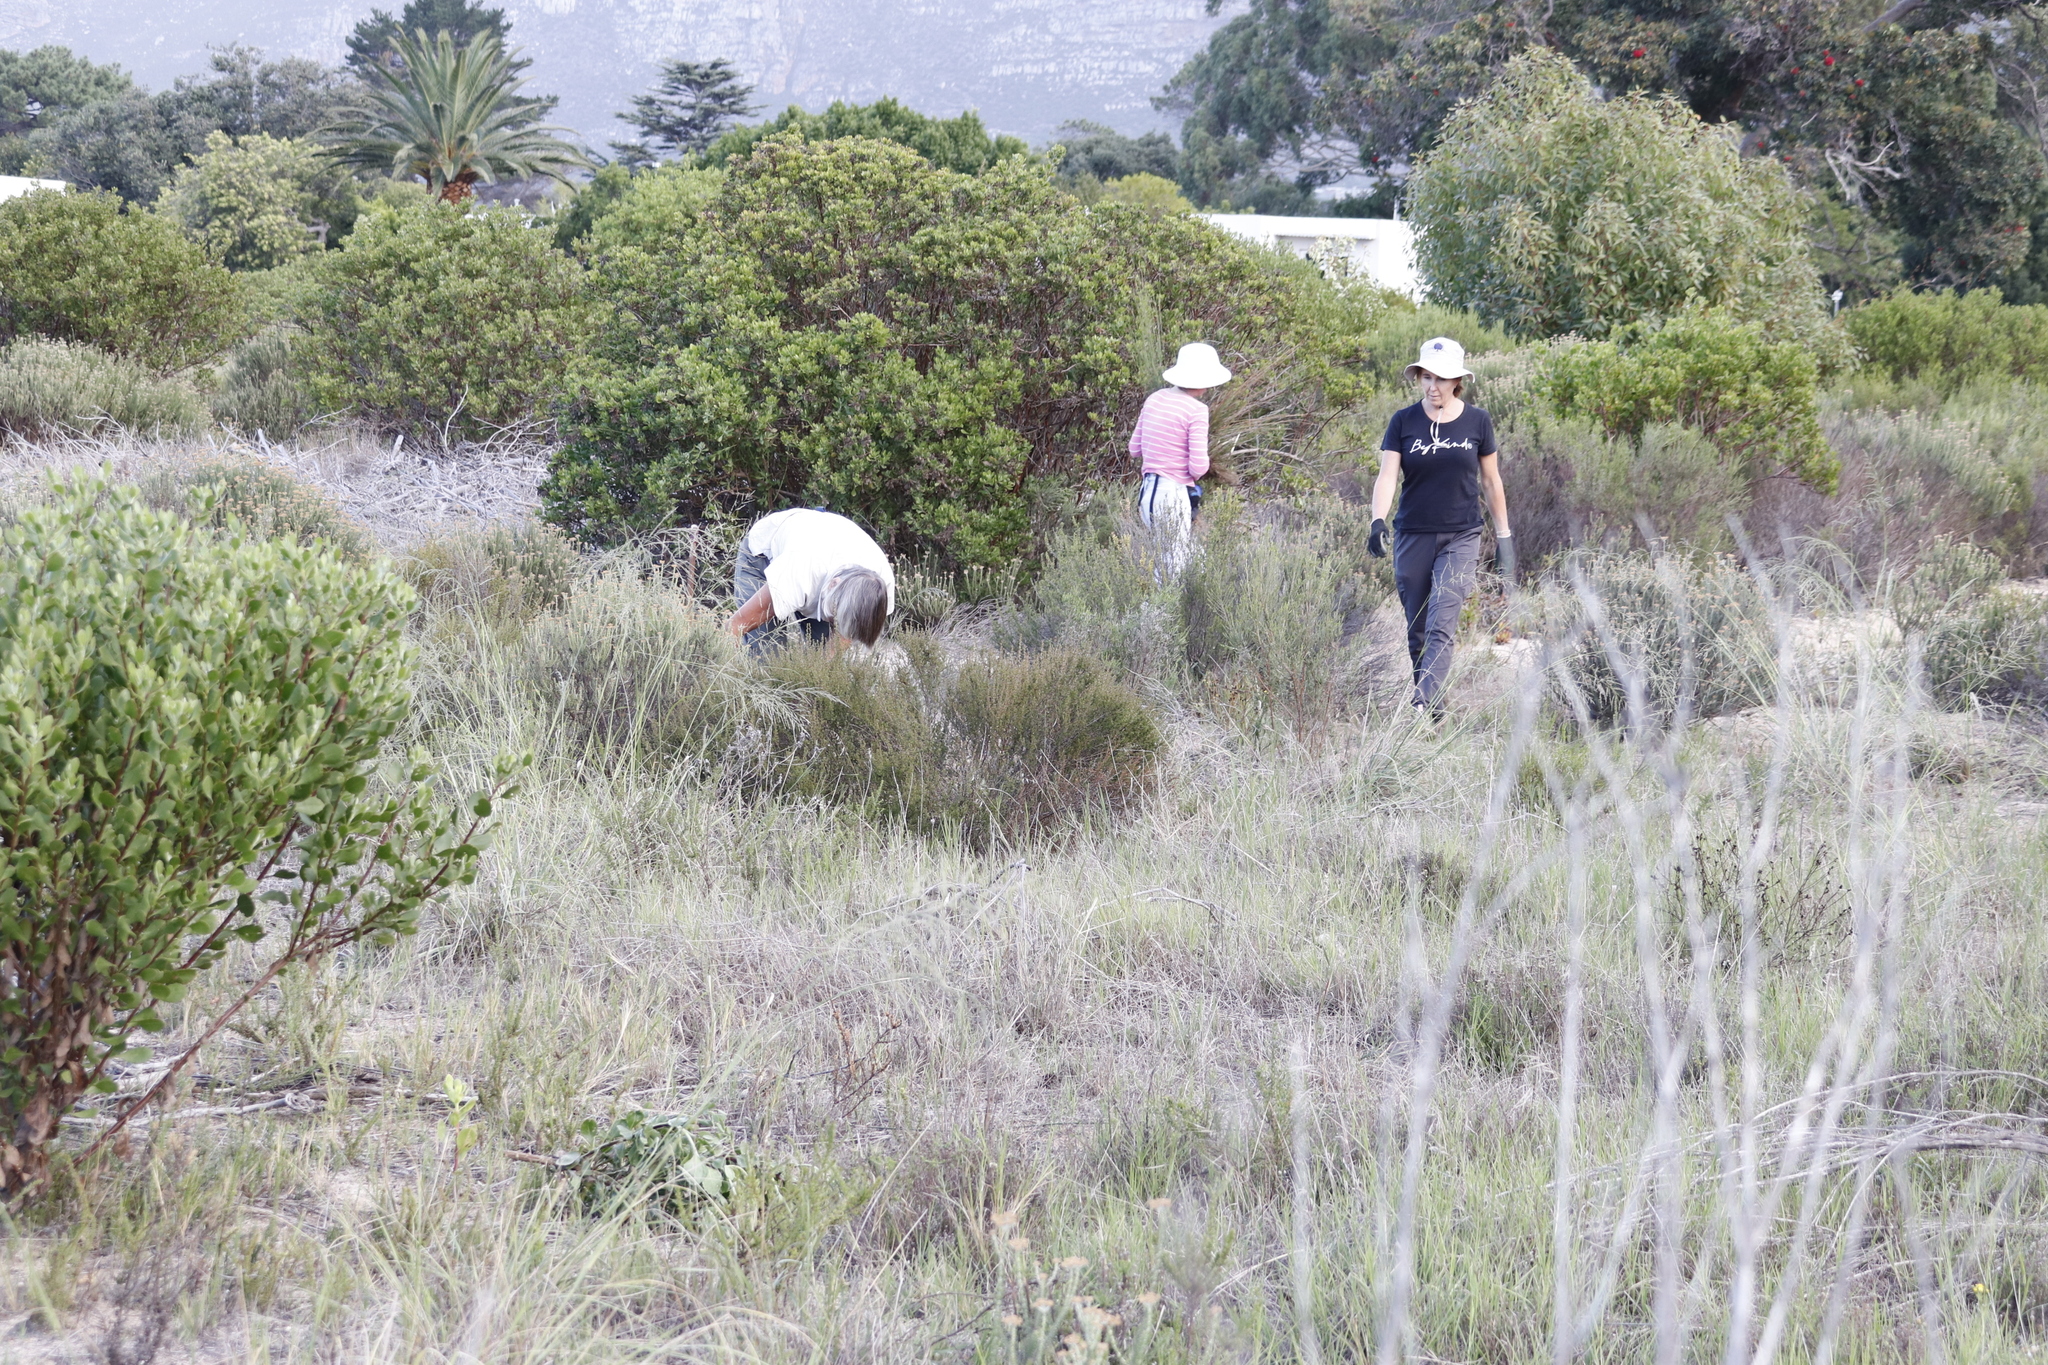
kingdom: Plantae
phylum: Tracheophyta
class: Magnoliopsida
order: Asterales
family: Asteraceae
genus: Osteospermum
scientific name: Osteospermum moniliferum
